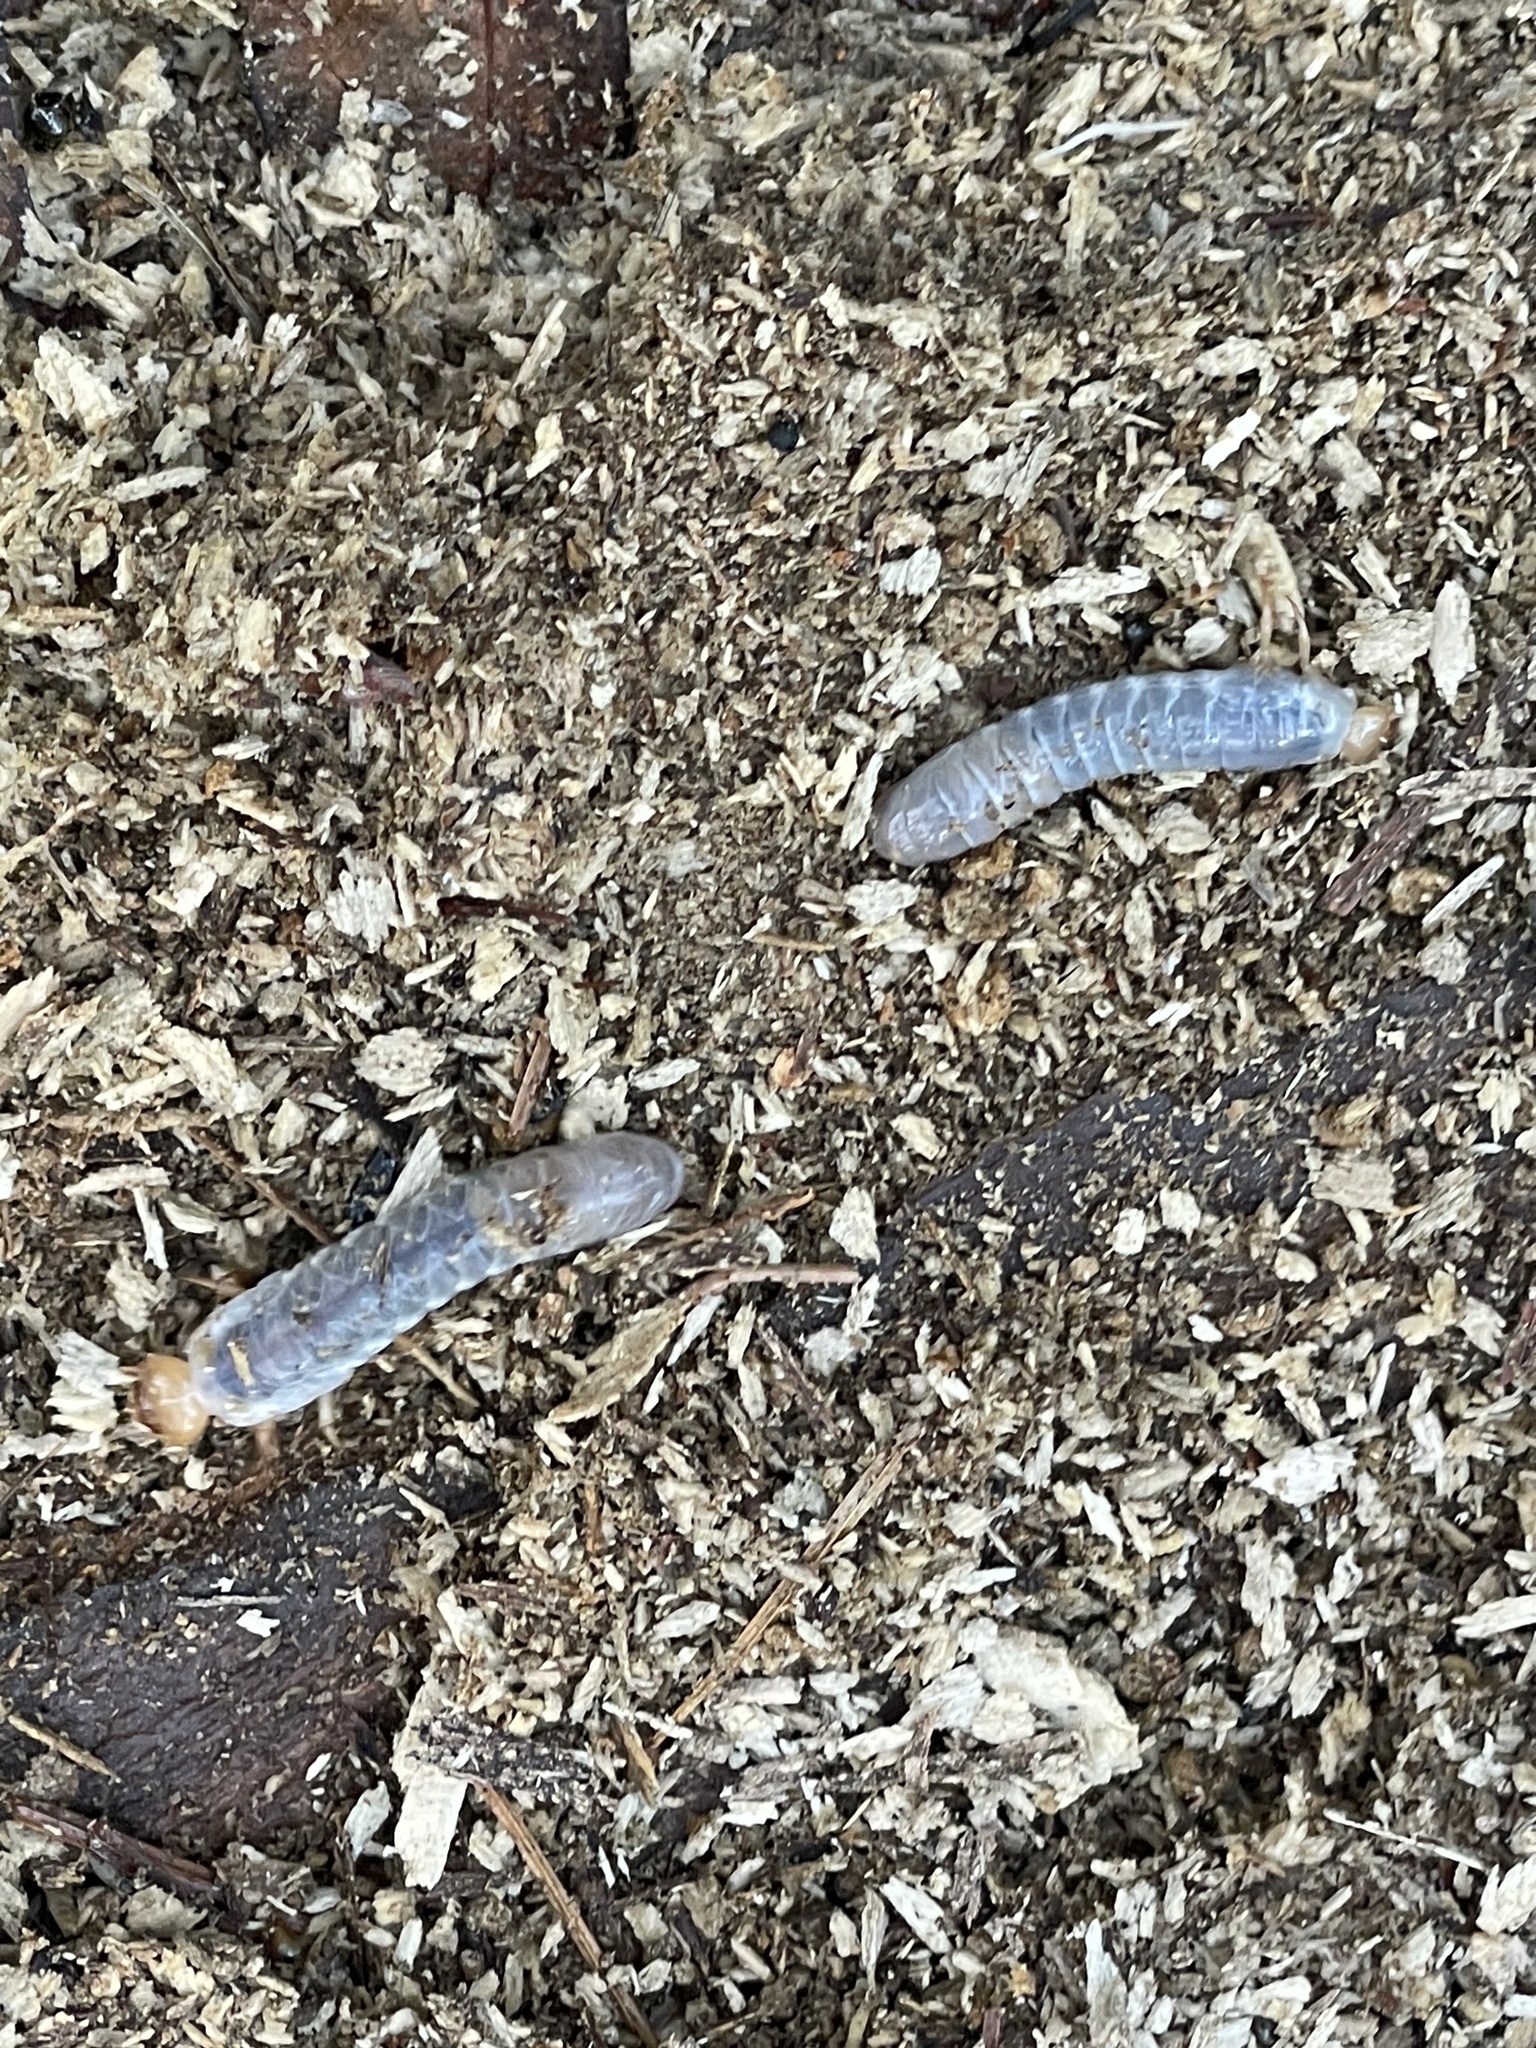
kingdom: Animalia
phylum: Arthropoda
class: Insecta
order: Coleoptera
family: Passalidae
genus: Odontotaenius
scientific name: Odontotaenius disjunctus
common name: Patent leather beetle
